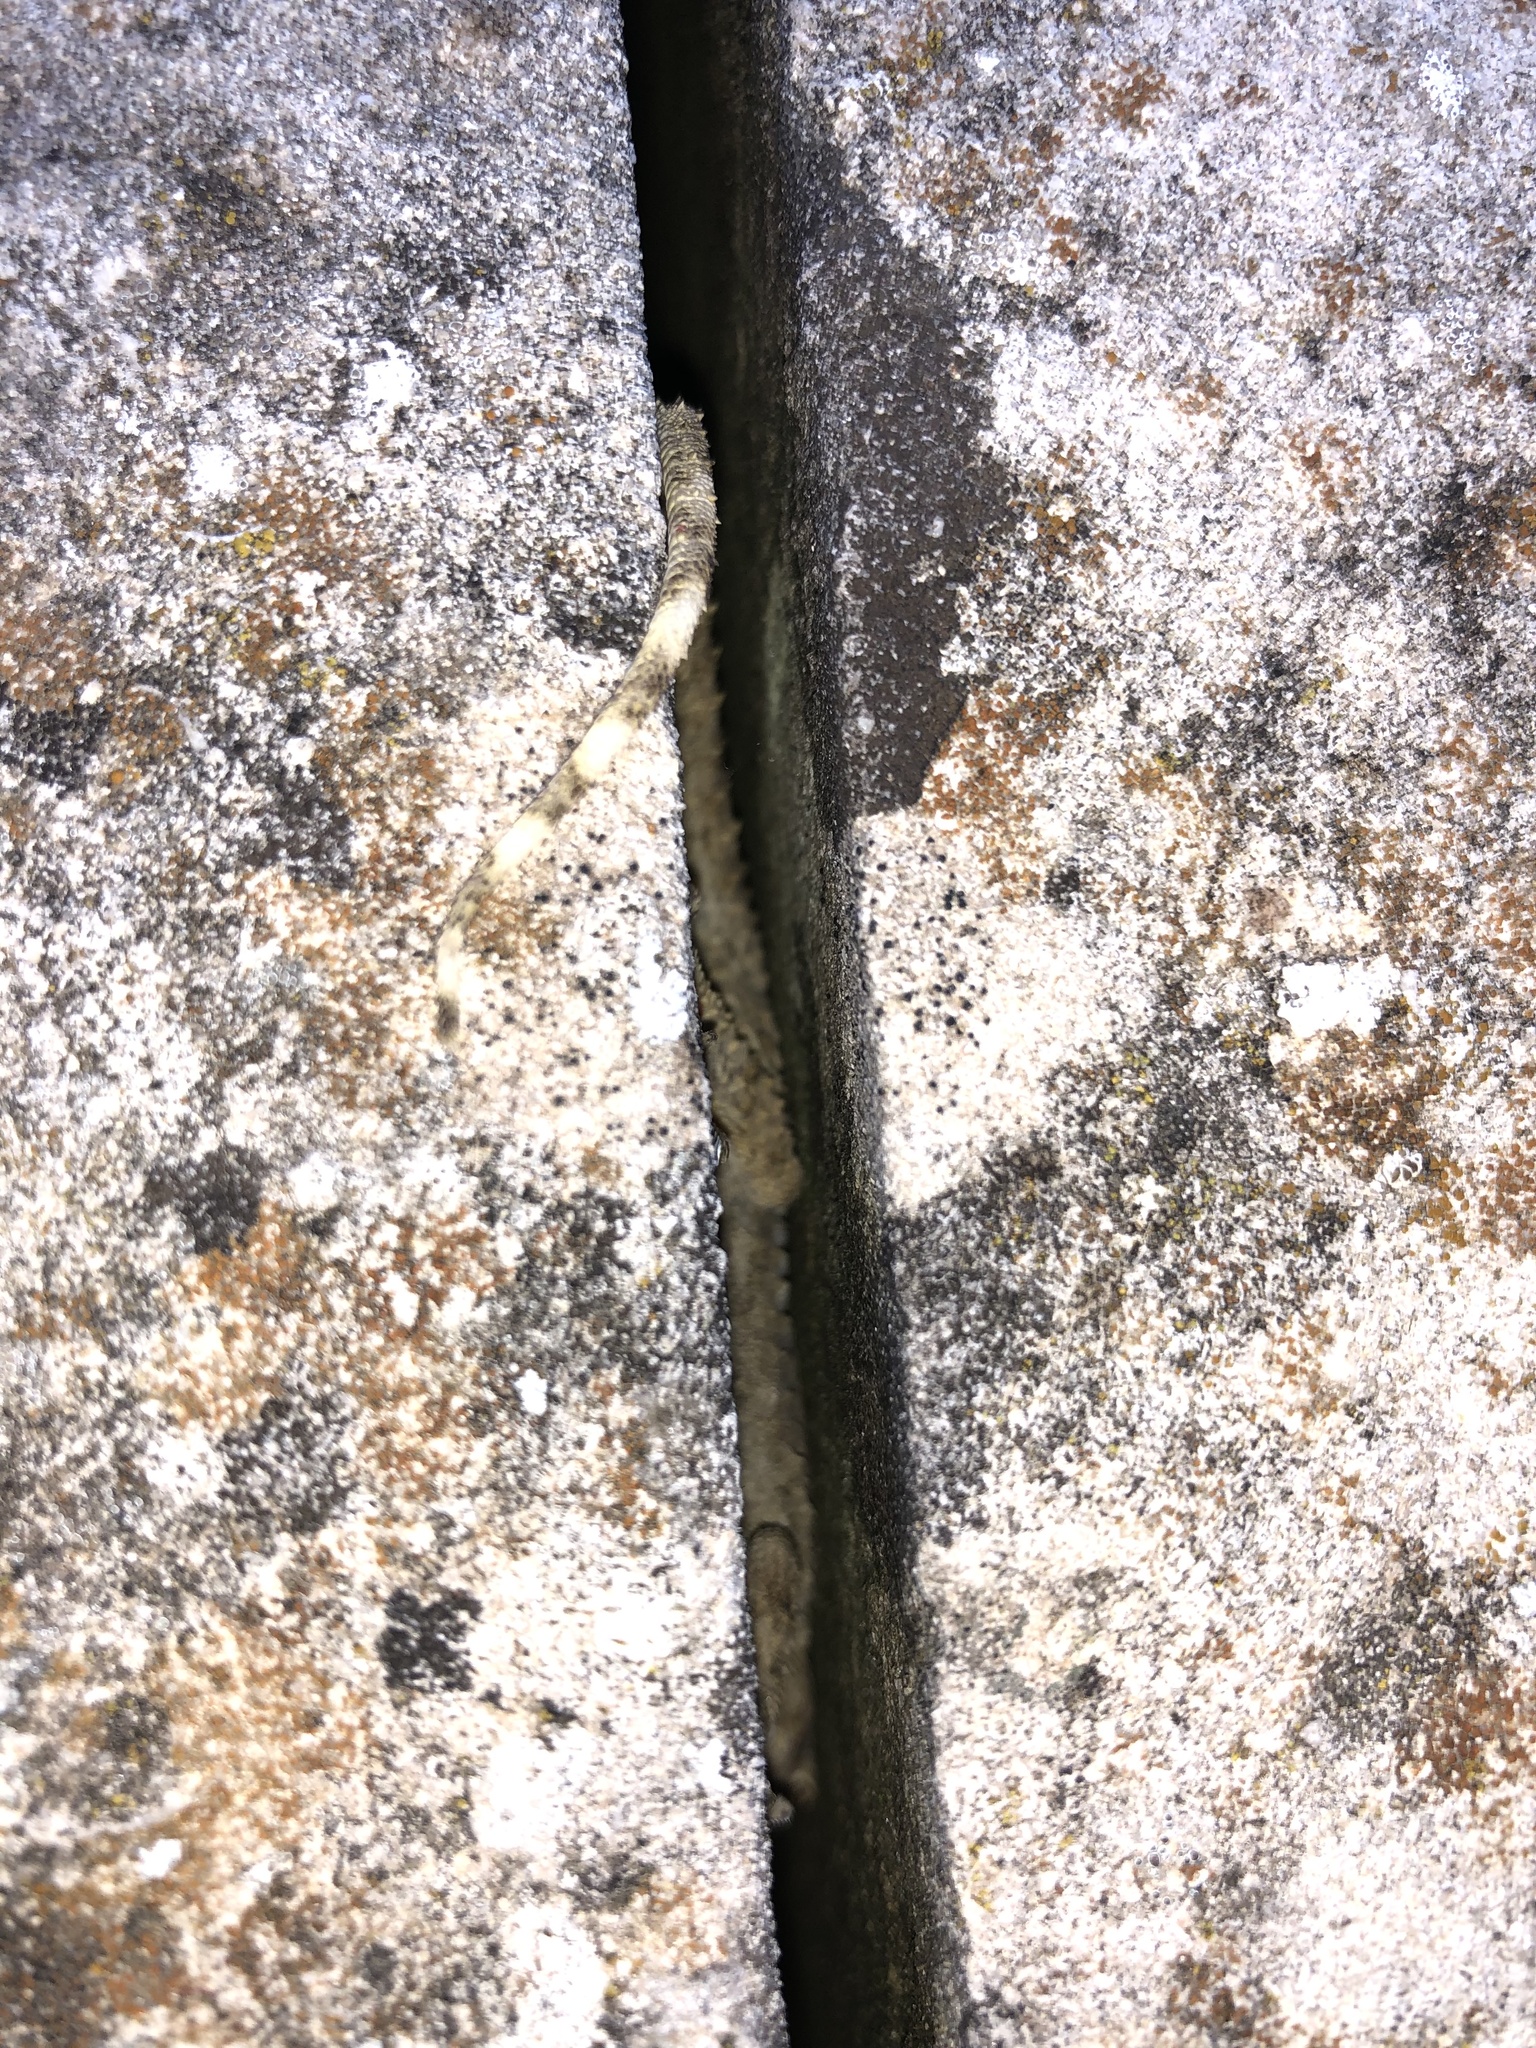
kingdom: Animalia
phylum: Chordata
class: Squamata
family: Phyllodactylidae
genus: Tarentola
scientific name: Tarentola mauritanica
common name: Moorish gecko
